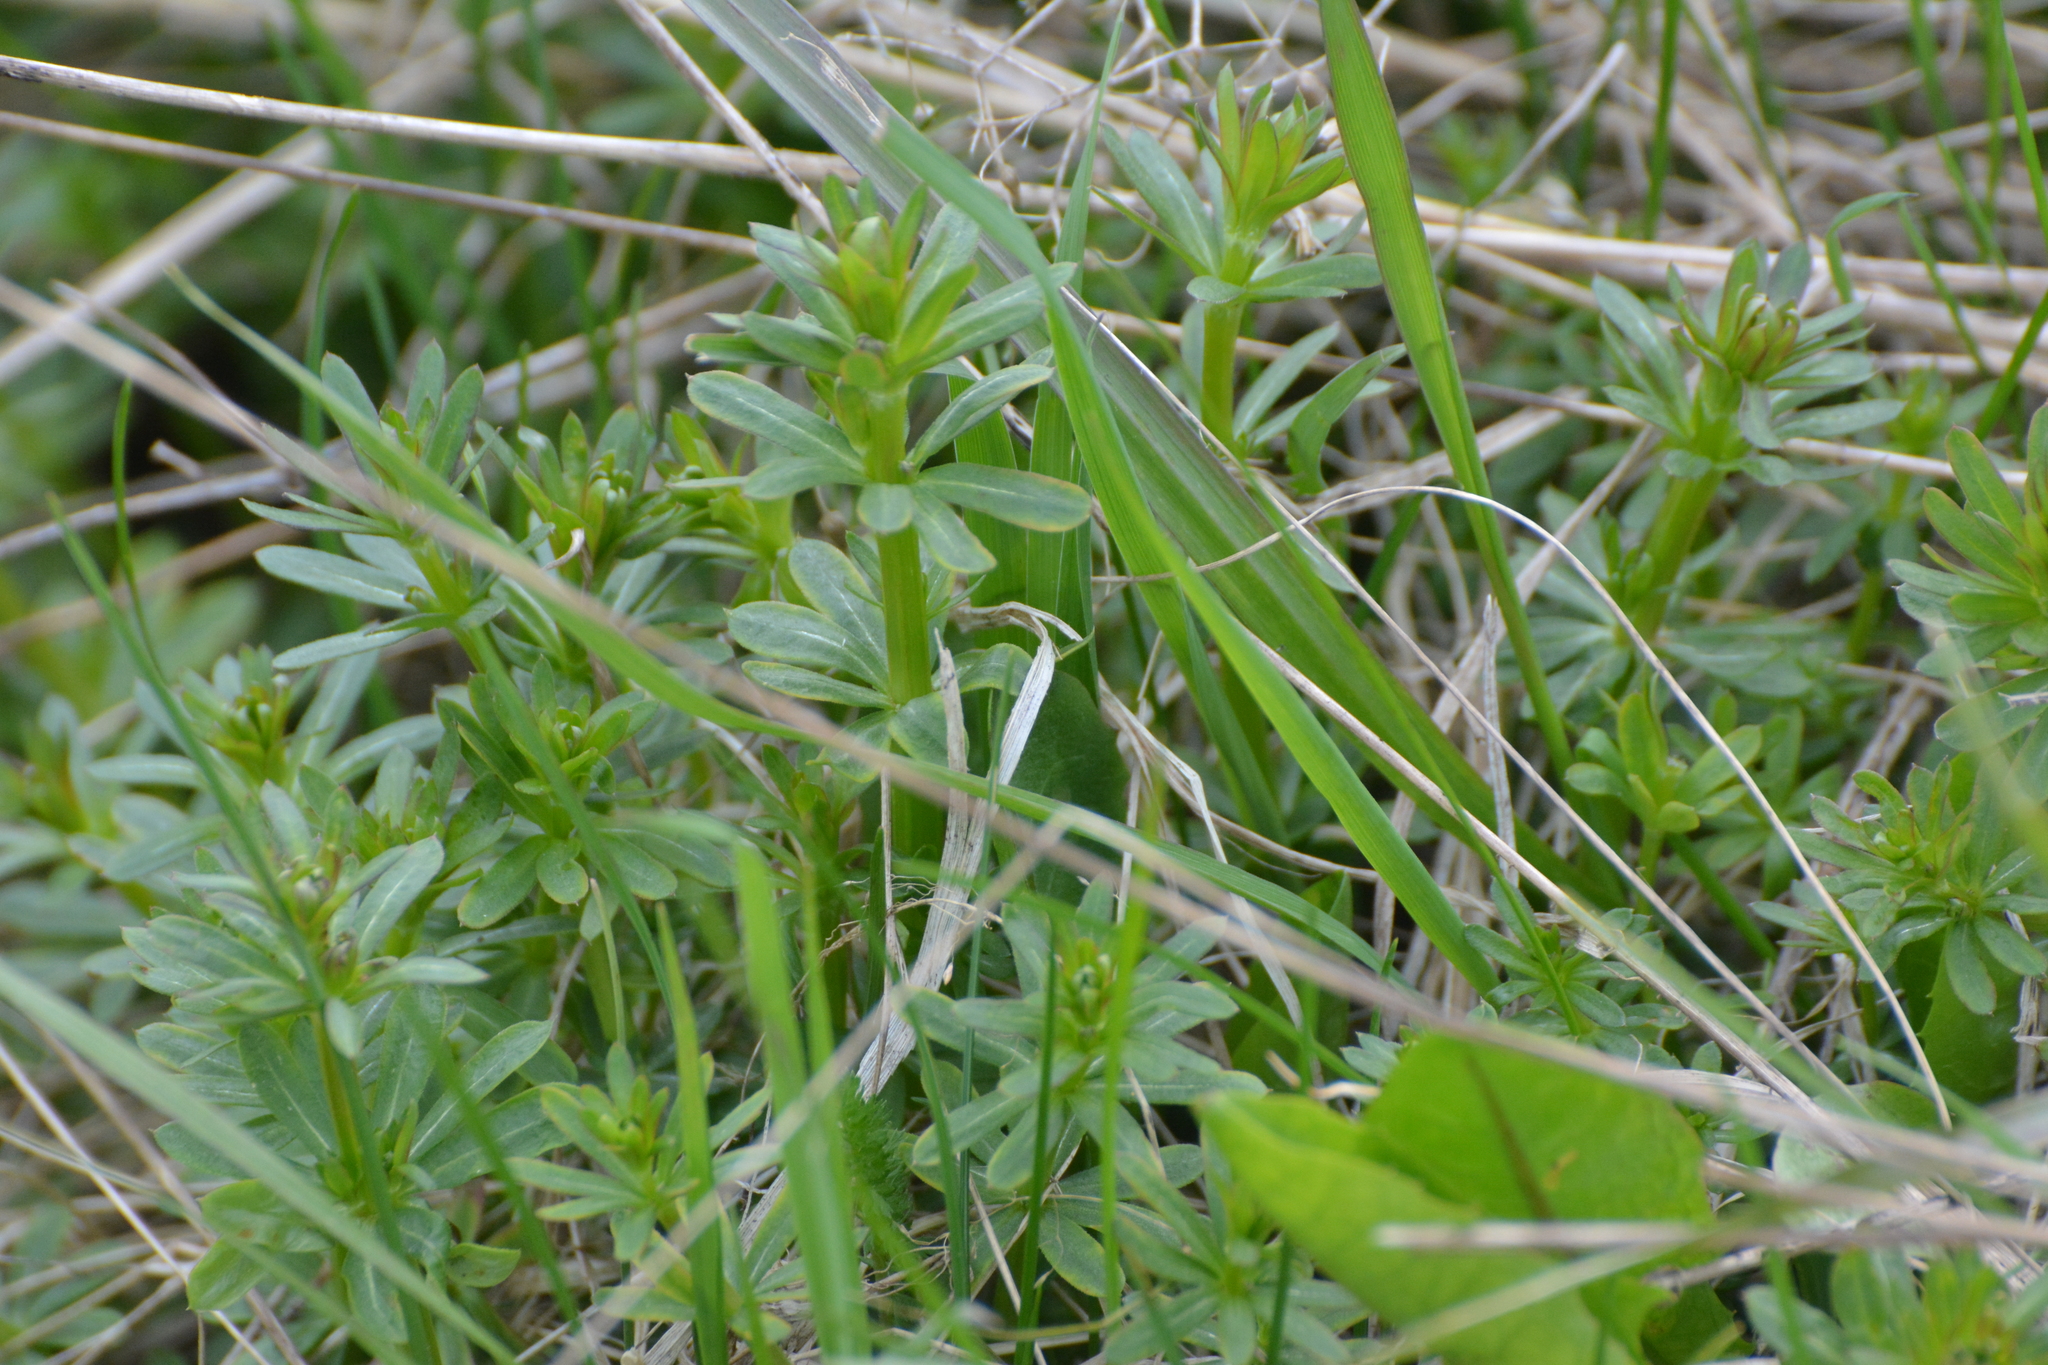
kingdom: Plantae
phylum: Tracheophyta
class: Magnoliopsida
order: Gentianales
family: Rubiaceae
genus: Galium
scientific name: Galium mollugo
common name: Hedge bedstraw
